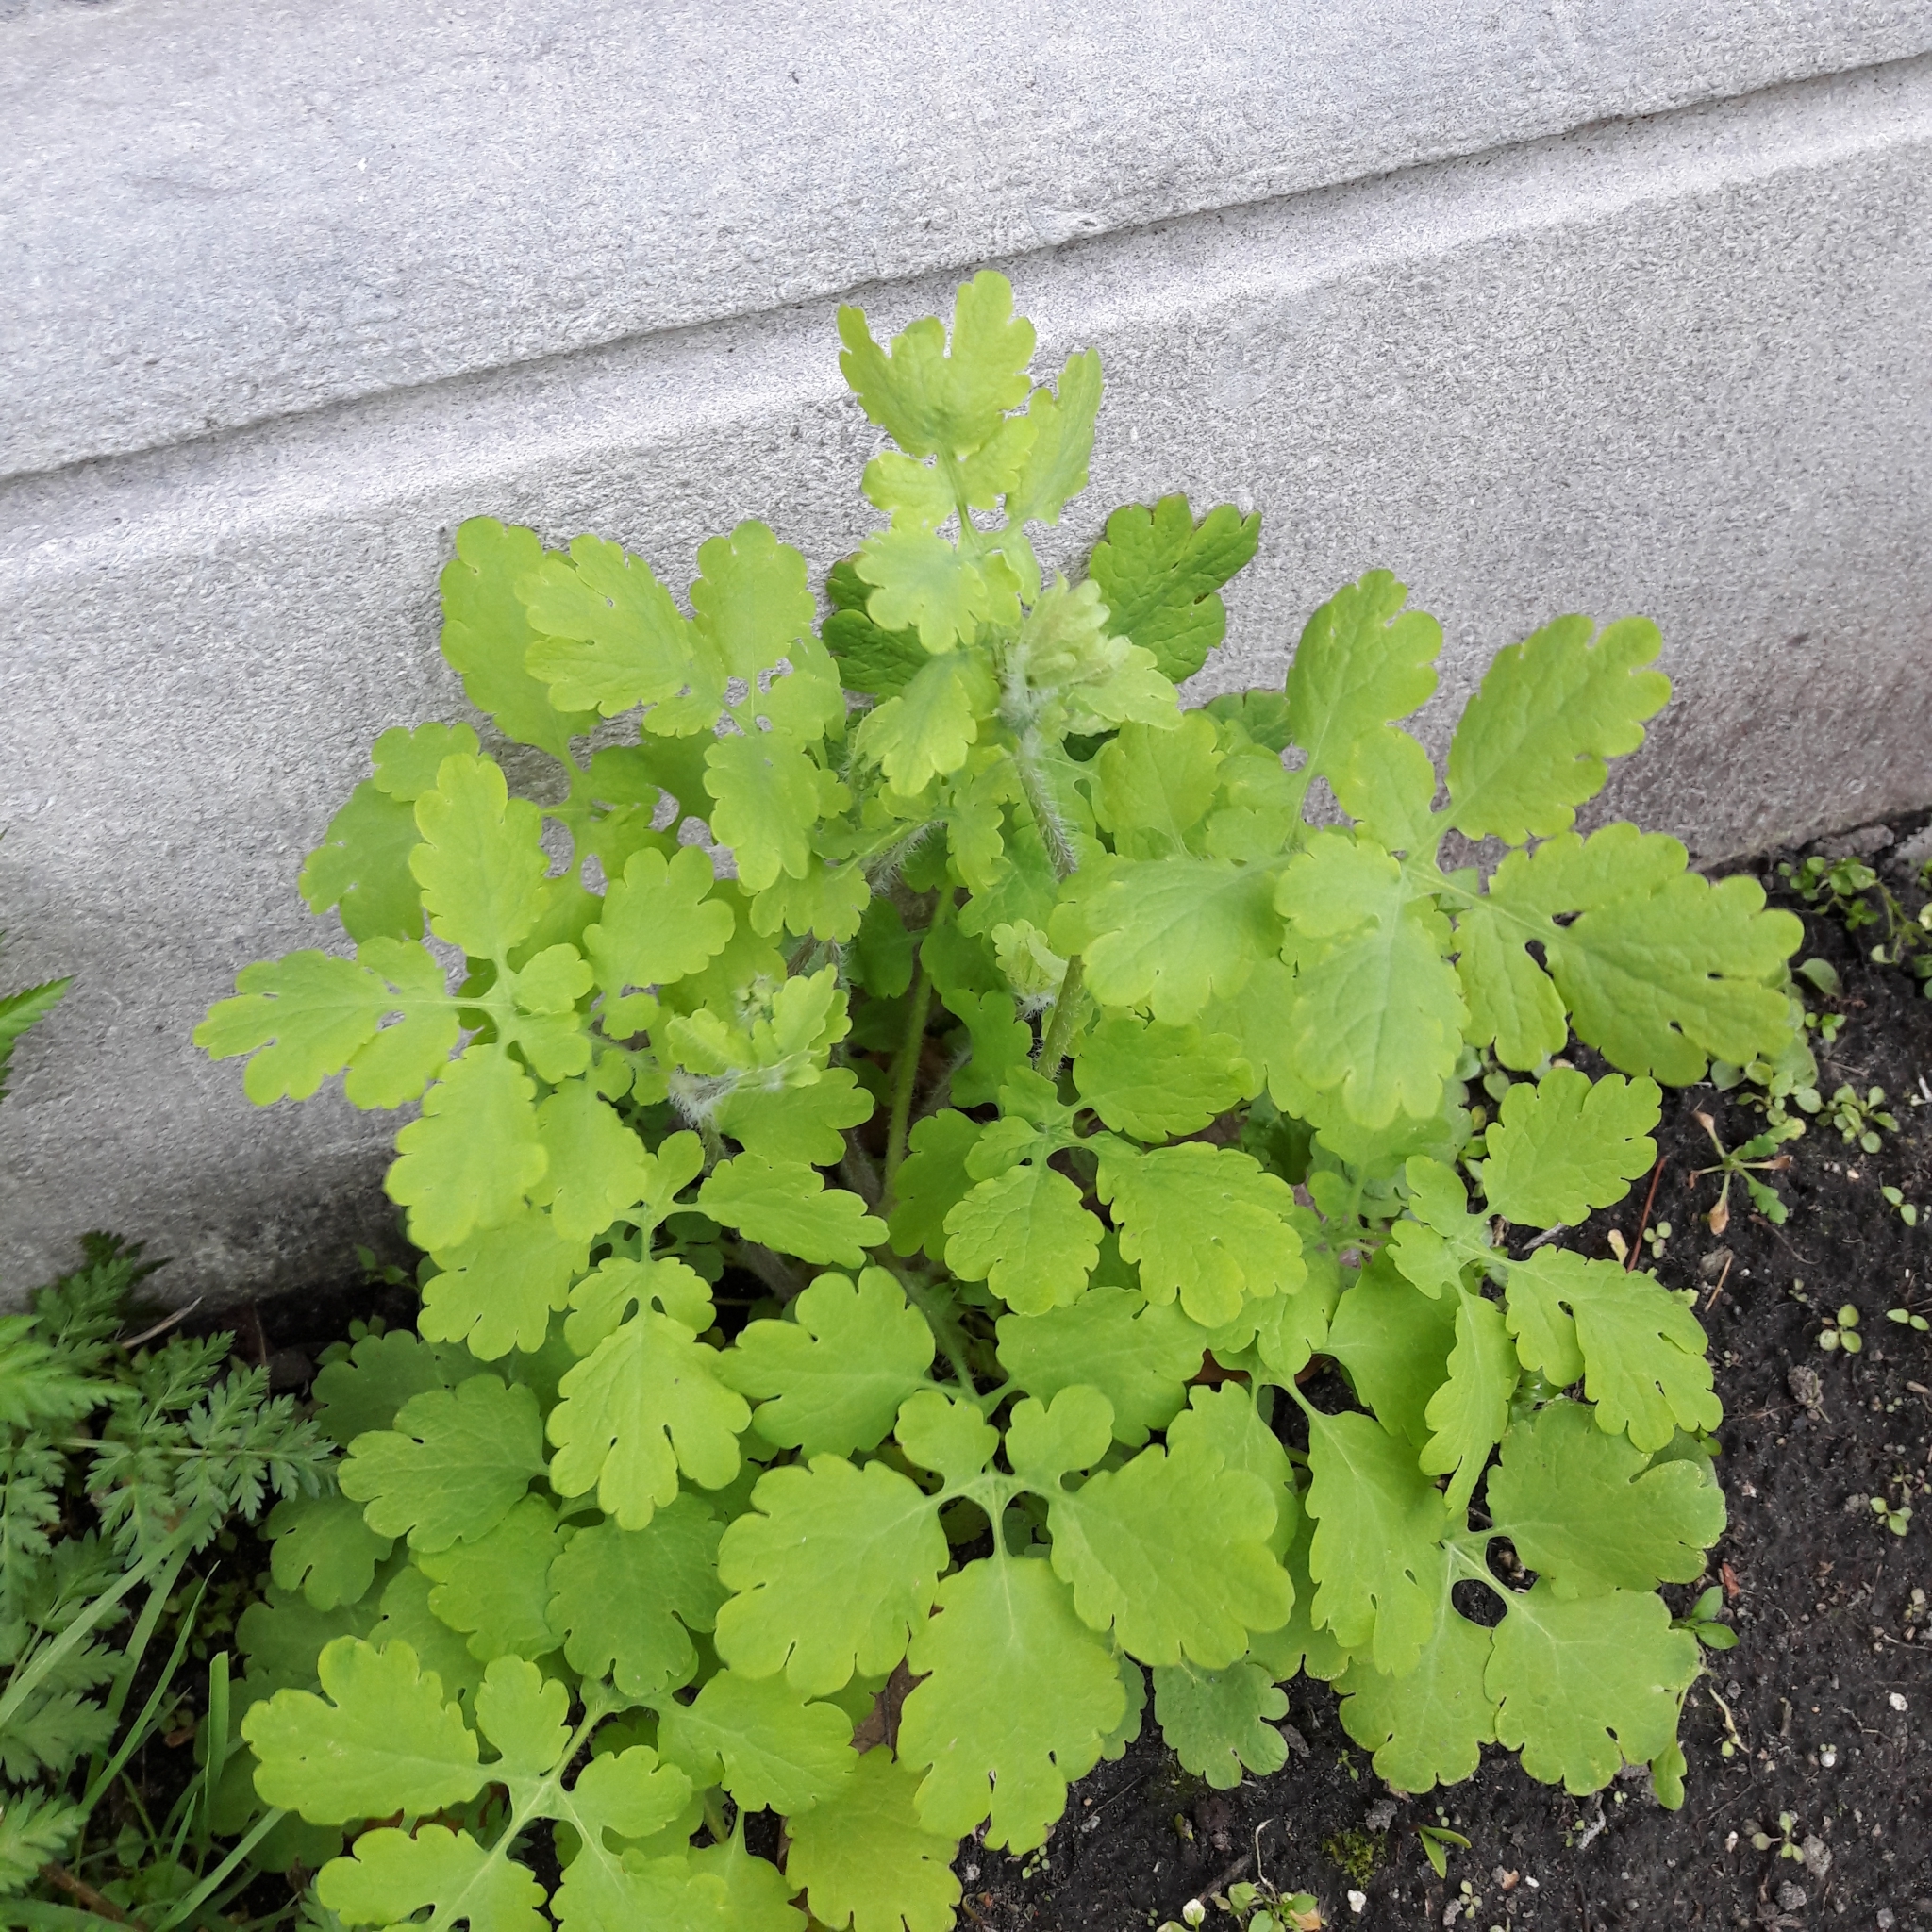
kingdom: Plantae
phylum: Tracheophyta
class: Magnoliopsida
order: Ranunculales
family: Papaveraceae
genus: Chelidonium
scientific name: Chelidonium majus
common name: Greater celandine
